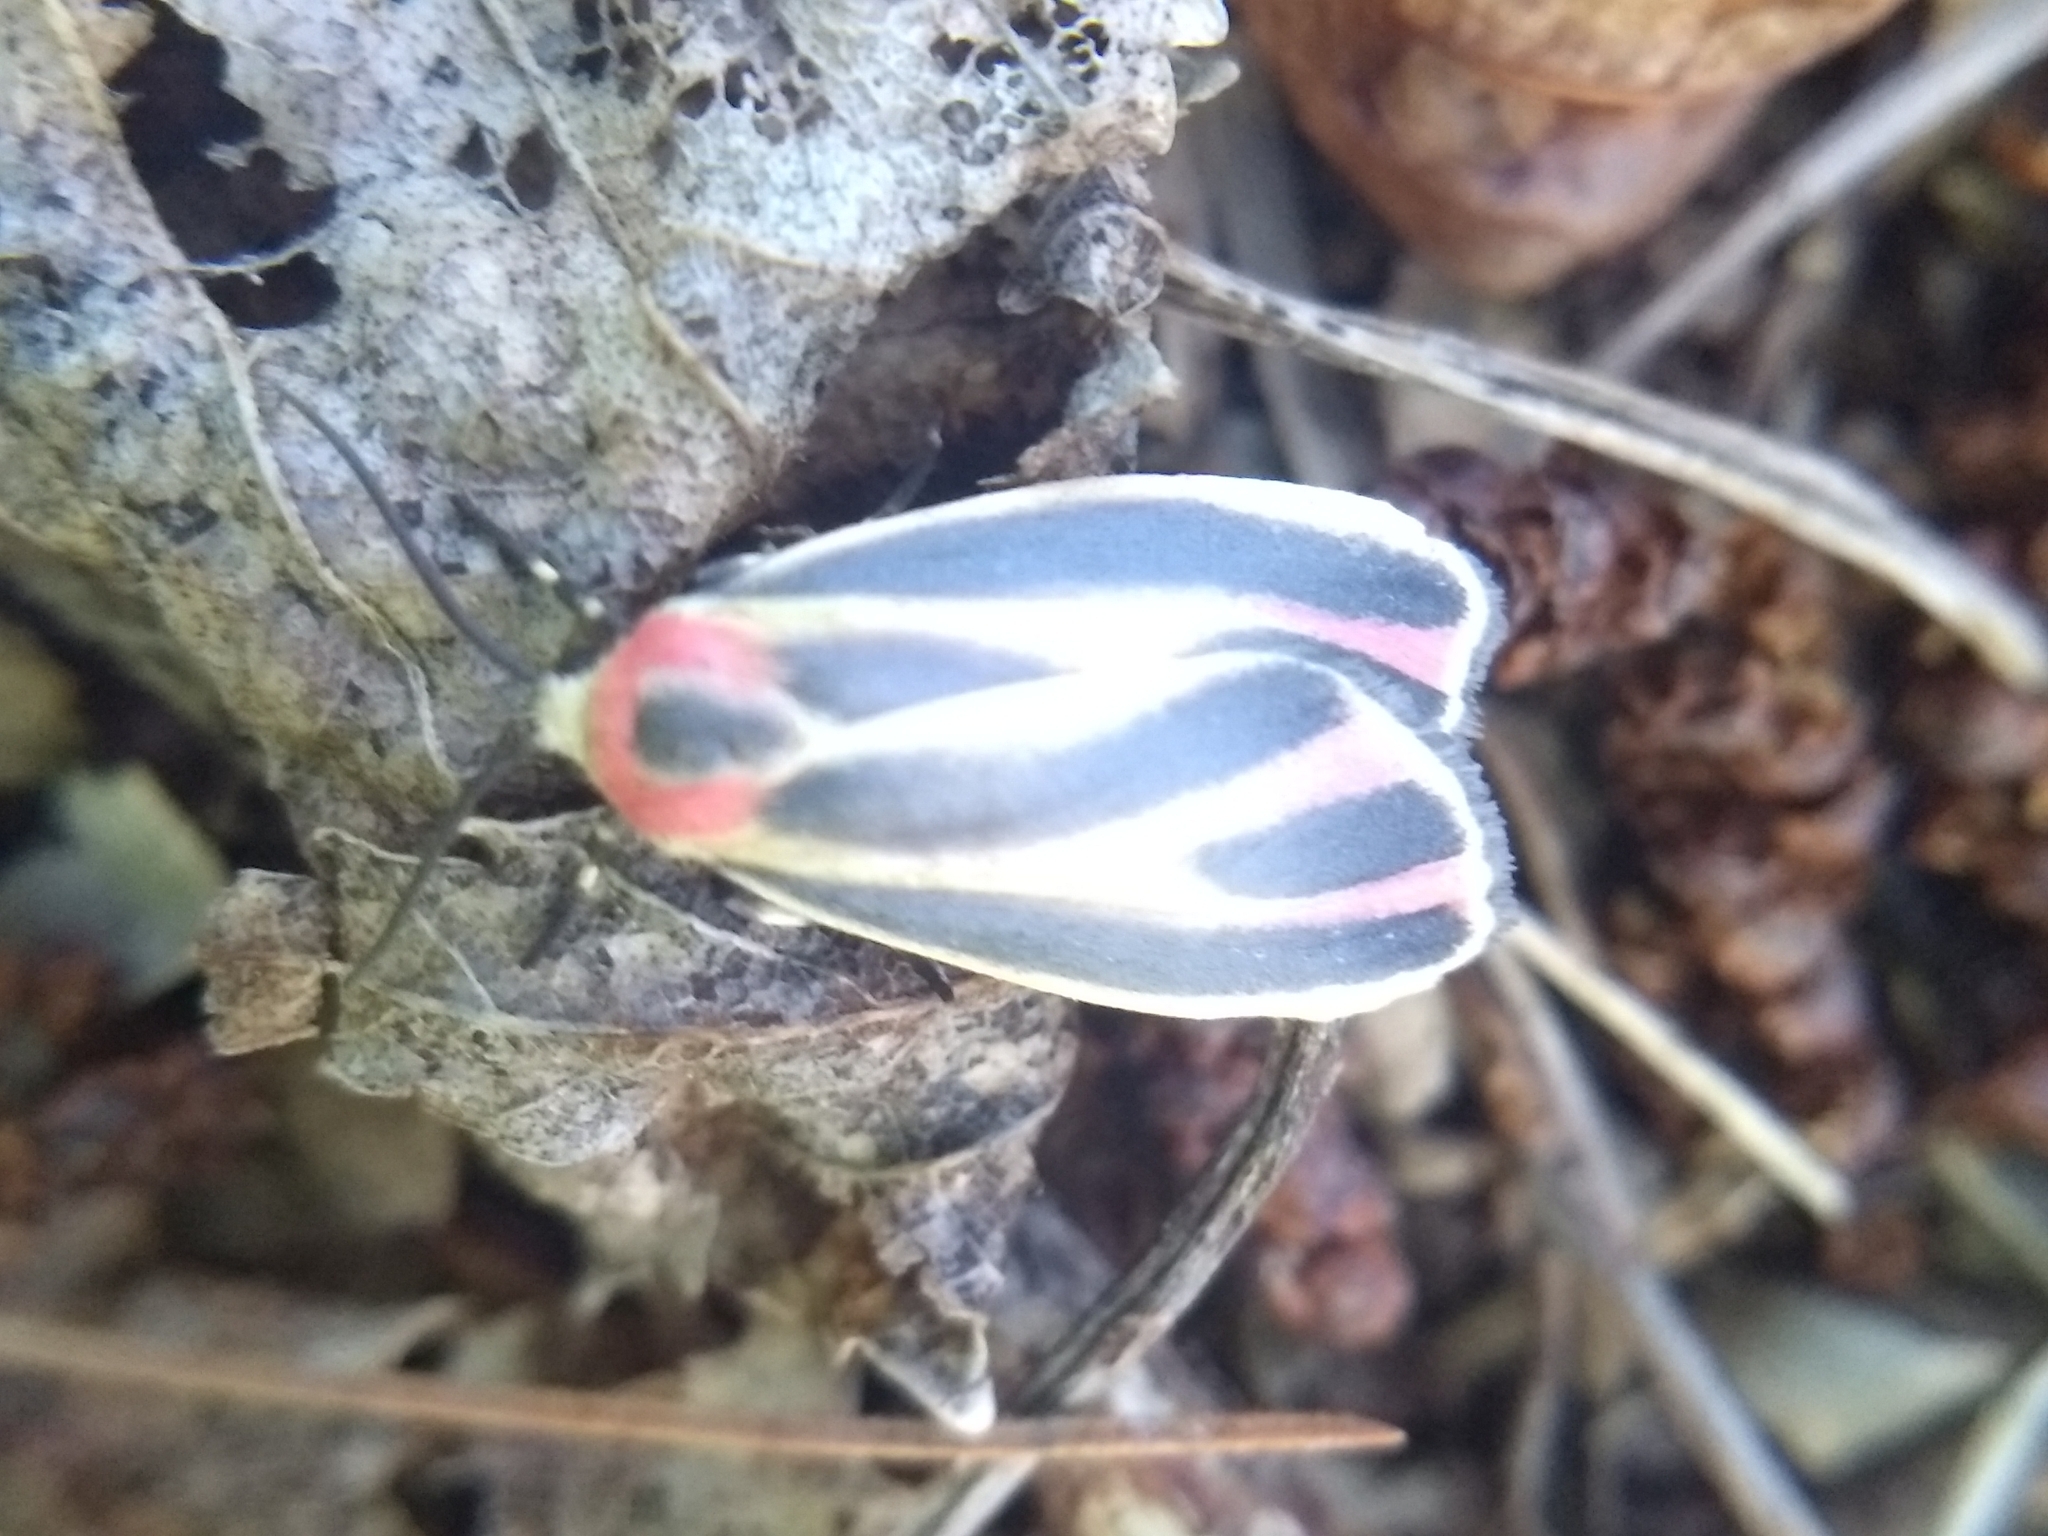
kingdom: Animalia
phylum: Arthropoda
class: Insecta
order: Lepidoptera
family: Erebidae
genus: Hypoprepia
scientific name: Hypoprepia fucosa
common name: Painted lichen moth
